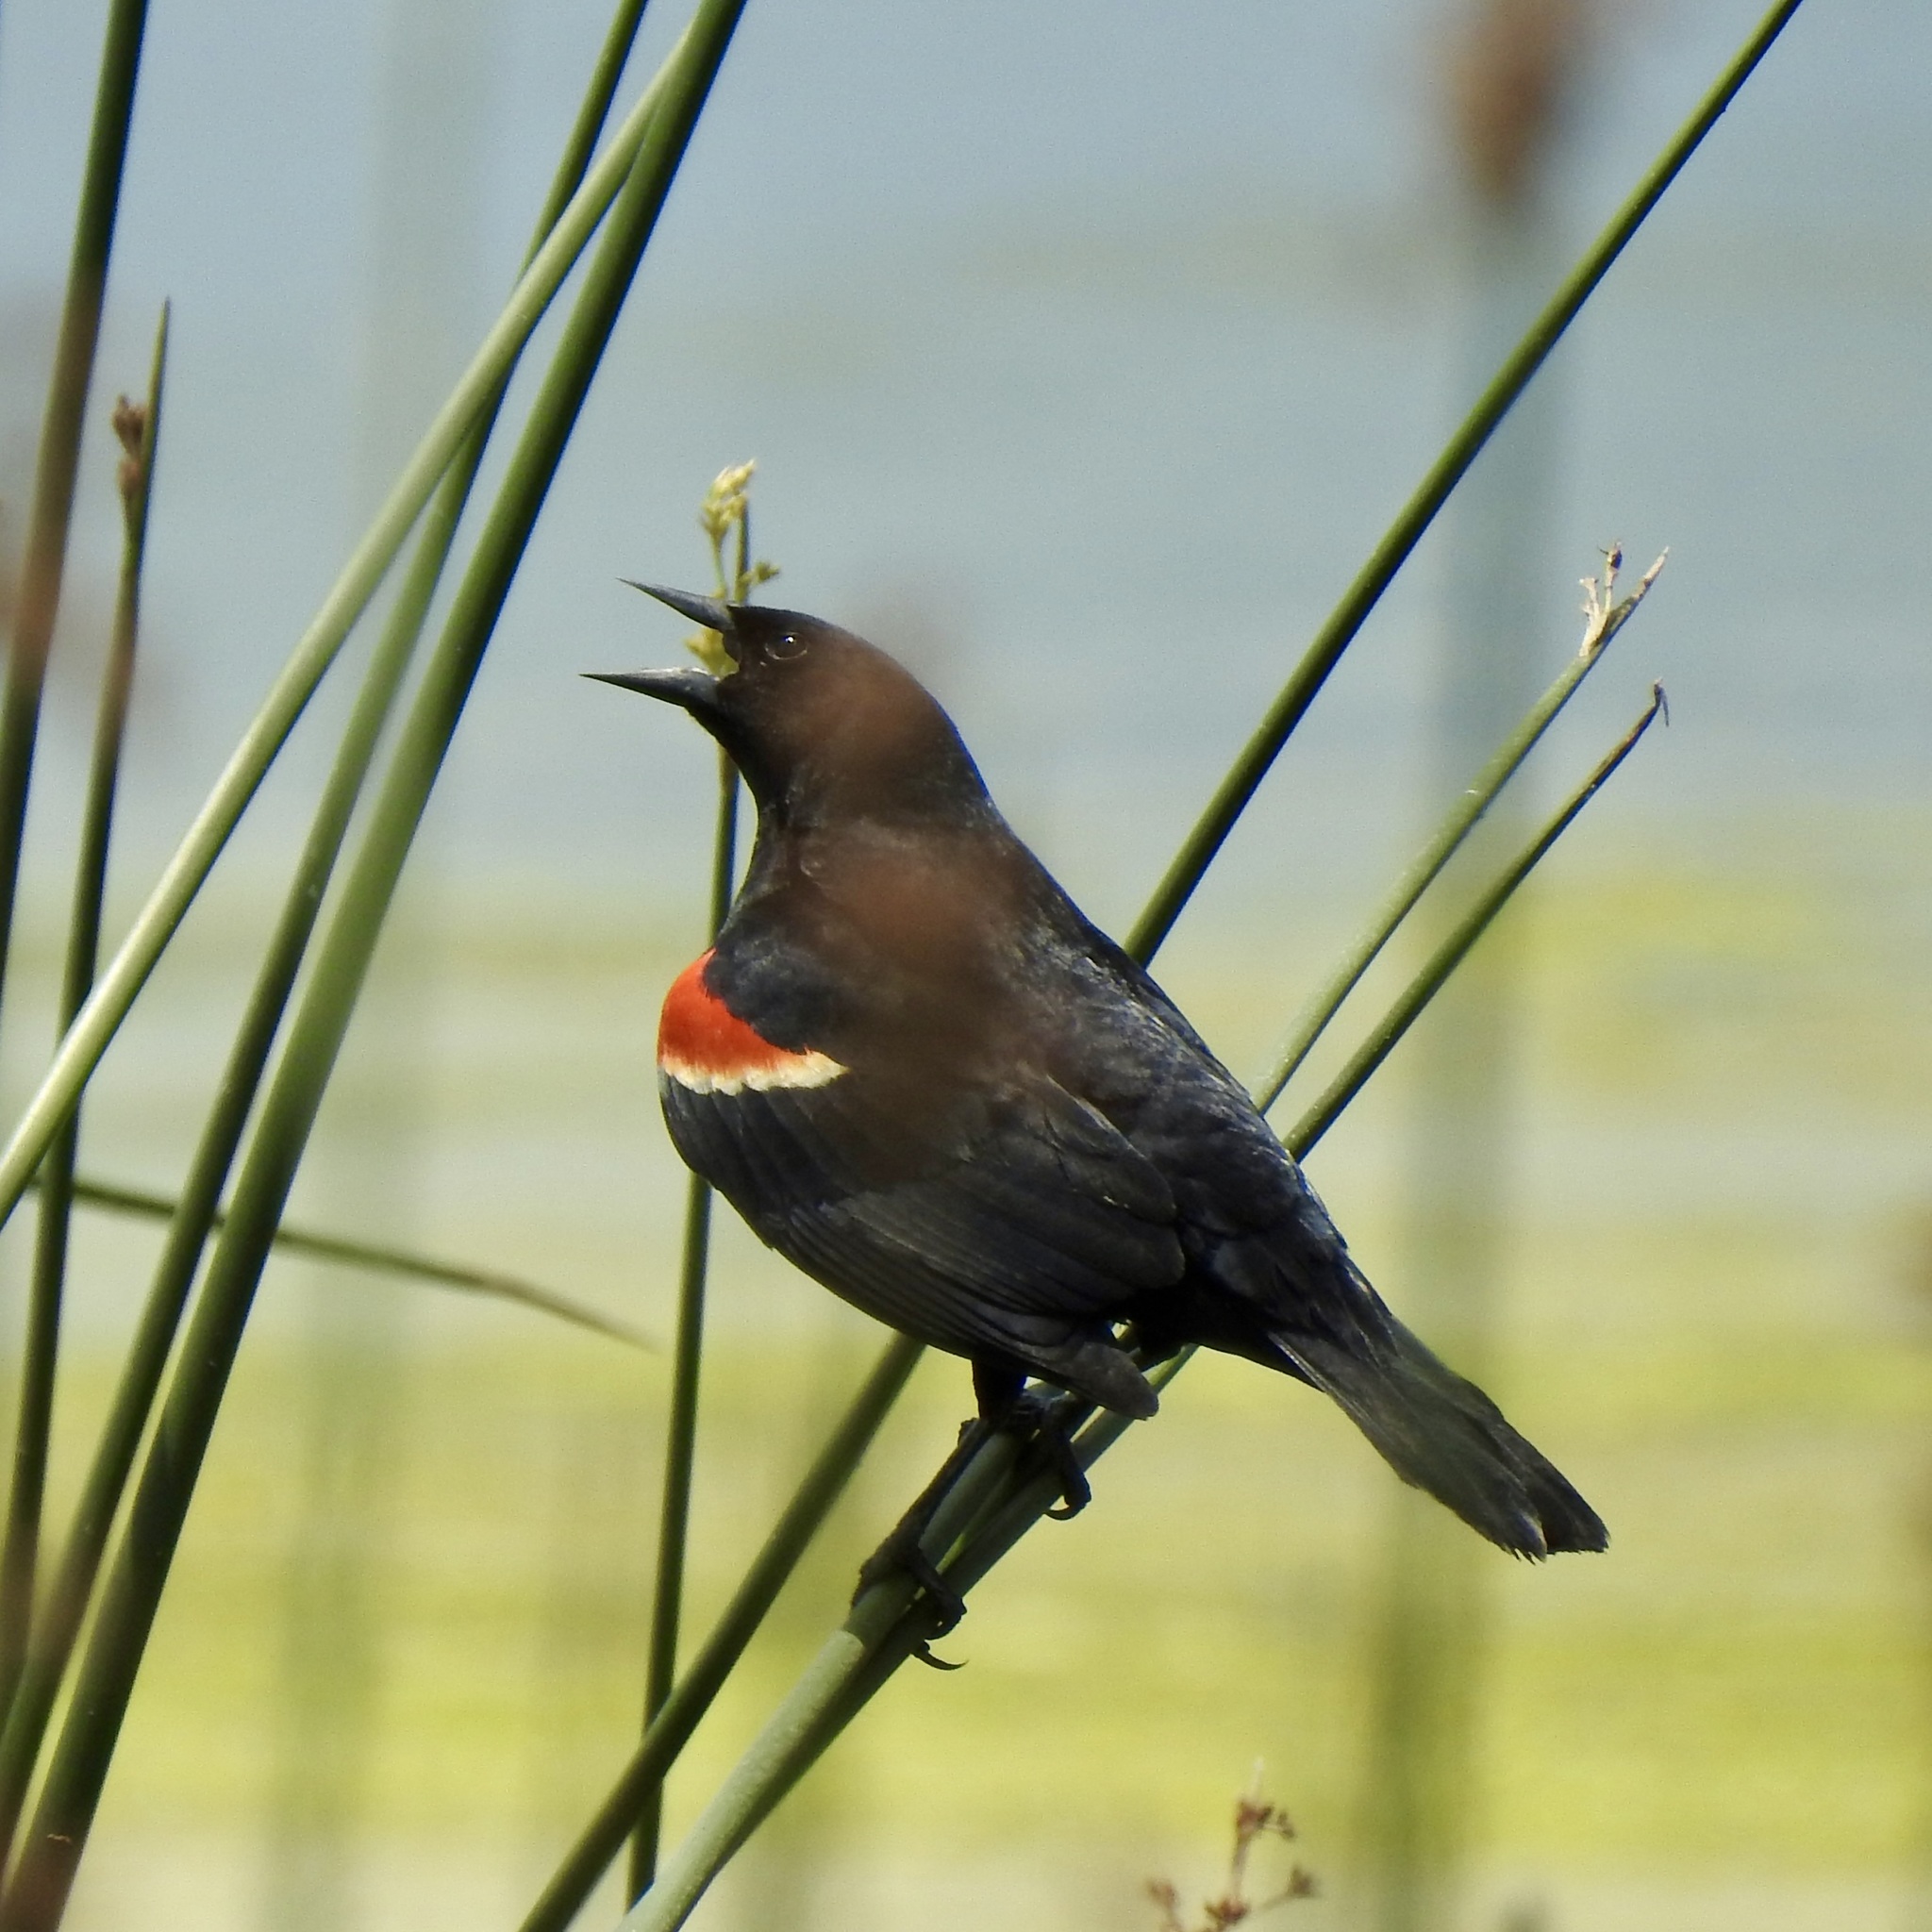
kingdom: Animalia
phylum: Chordata
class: Aves
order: Passeriformes
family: Icteridae
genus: Agelaius
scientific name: Agelaius phoeniceus
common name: Red-winged blackbird
